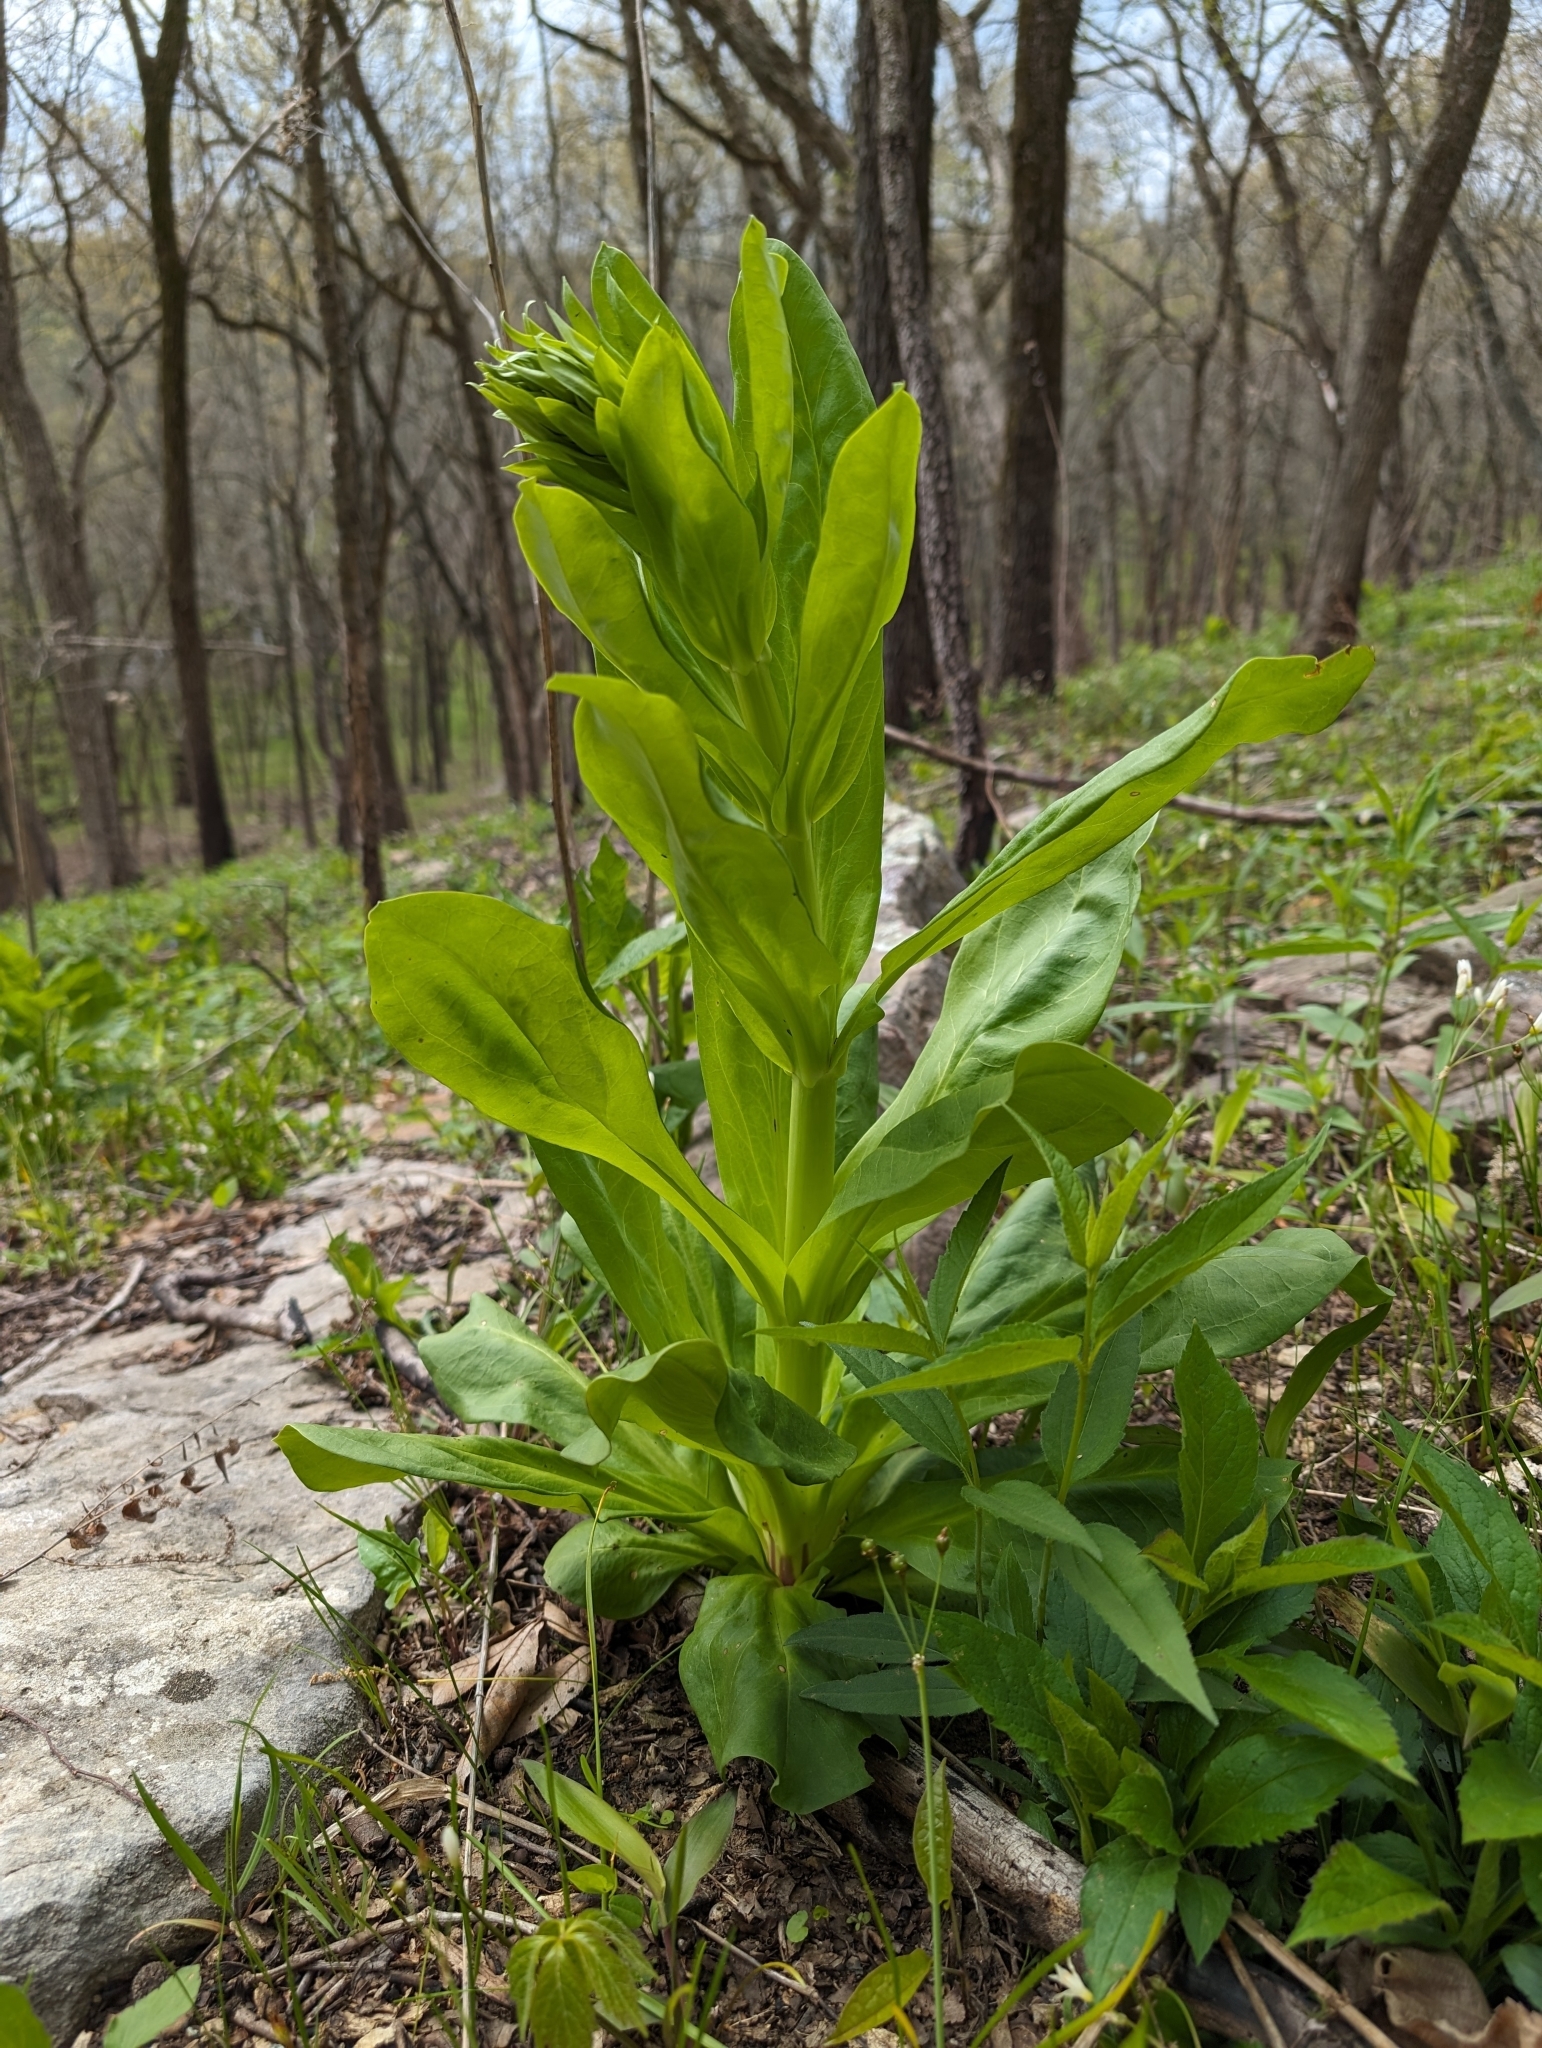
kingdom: Plantae
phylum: Tracheophyta
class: Magnoliopsida
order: Gentianales
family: Gentianaceae
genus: Frasera
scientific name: Frasera caroliniensis
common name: American columbo
